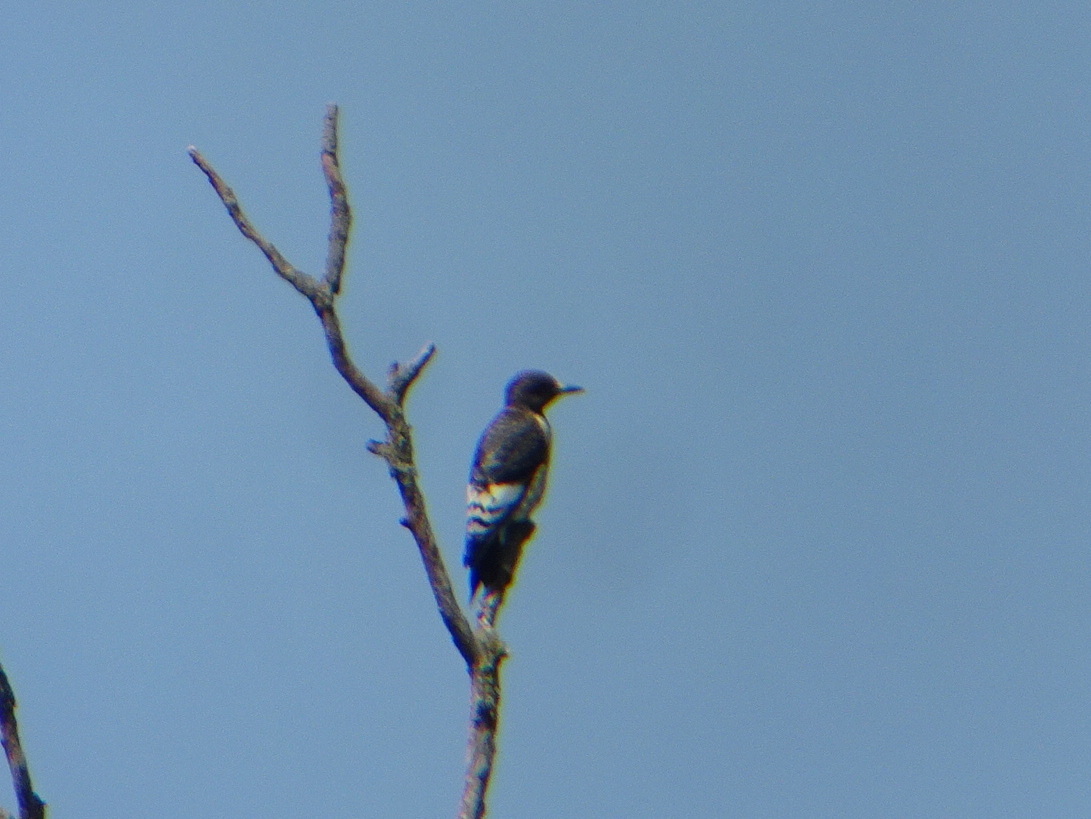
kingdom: Animalia
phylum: Chordata
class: Aves
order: Piciformes
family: Picidae
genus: Melanerpes
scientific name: Melanerpes erythrocephalus
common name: Red-headed woodpecker
